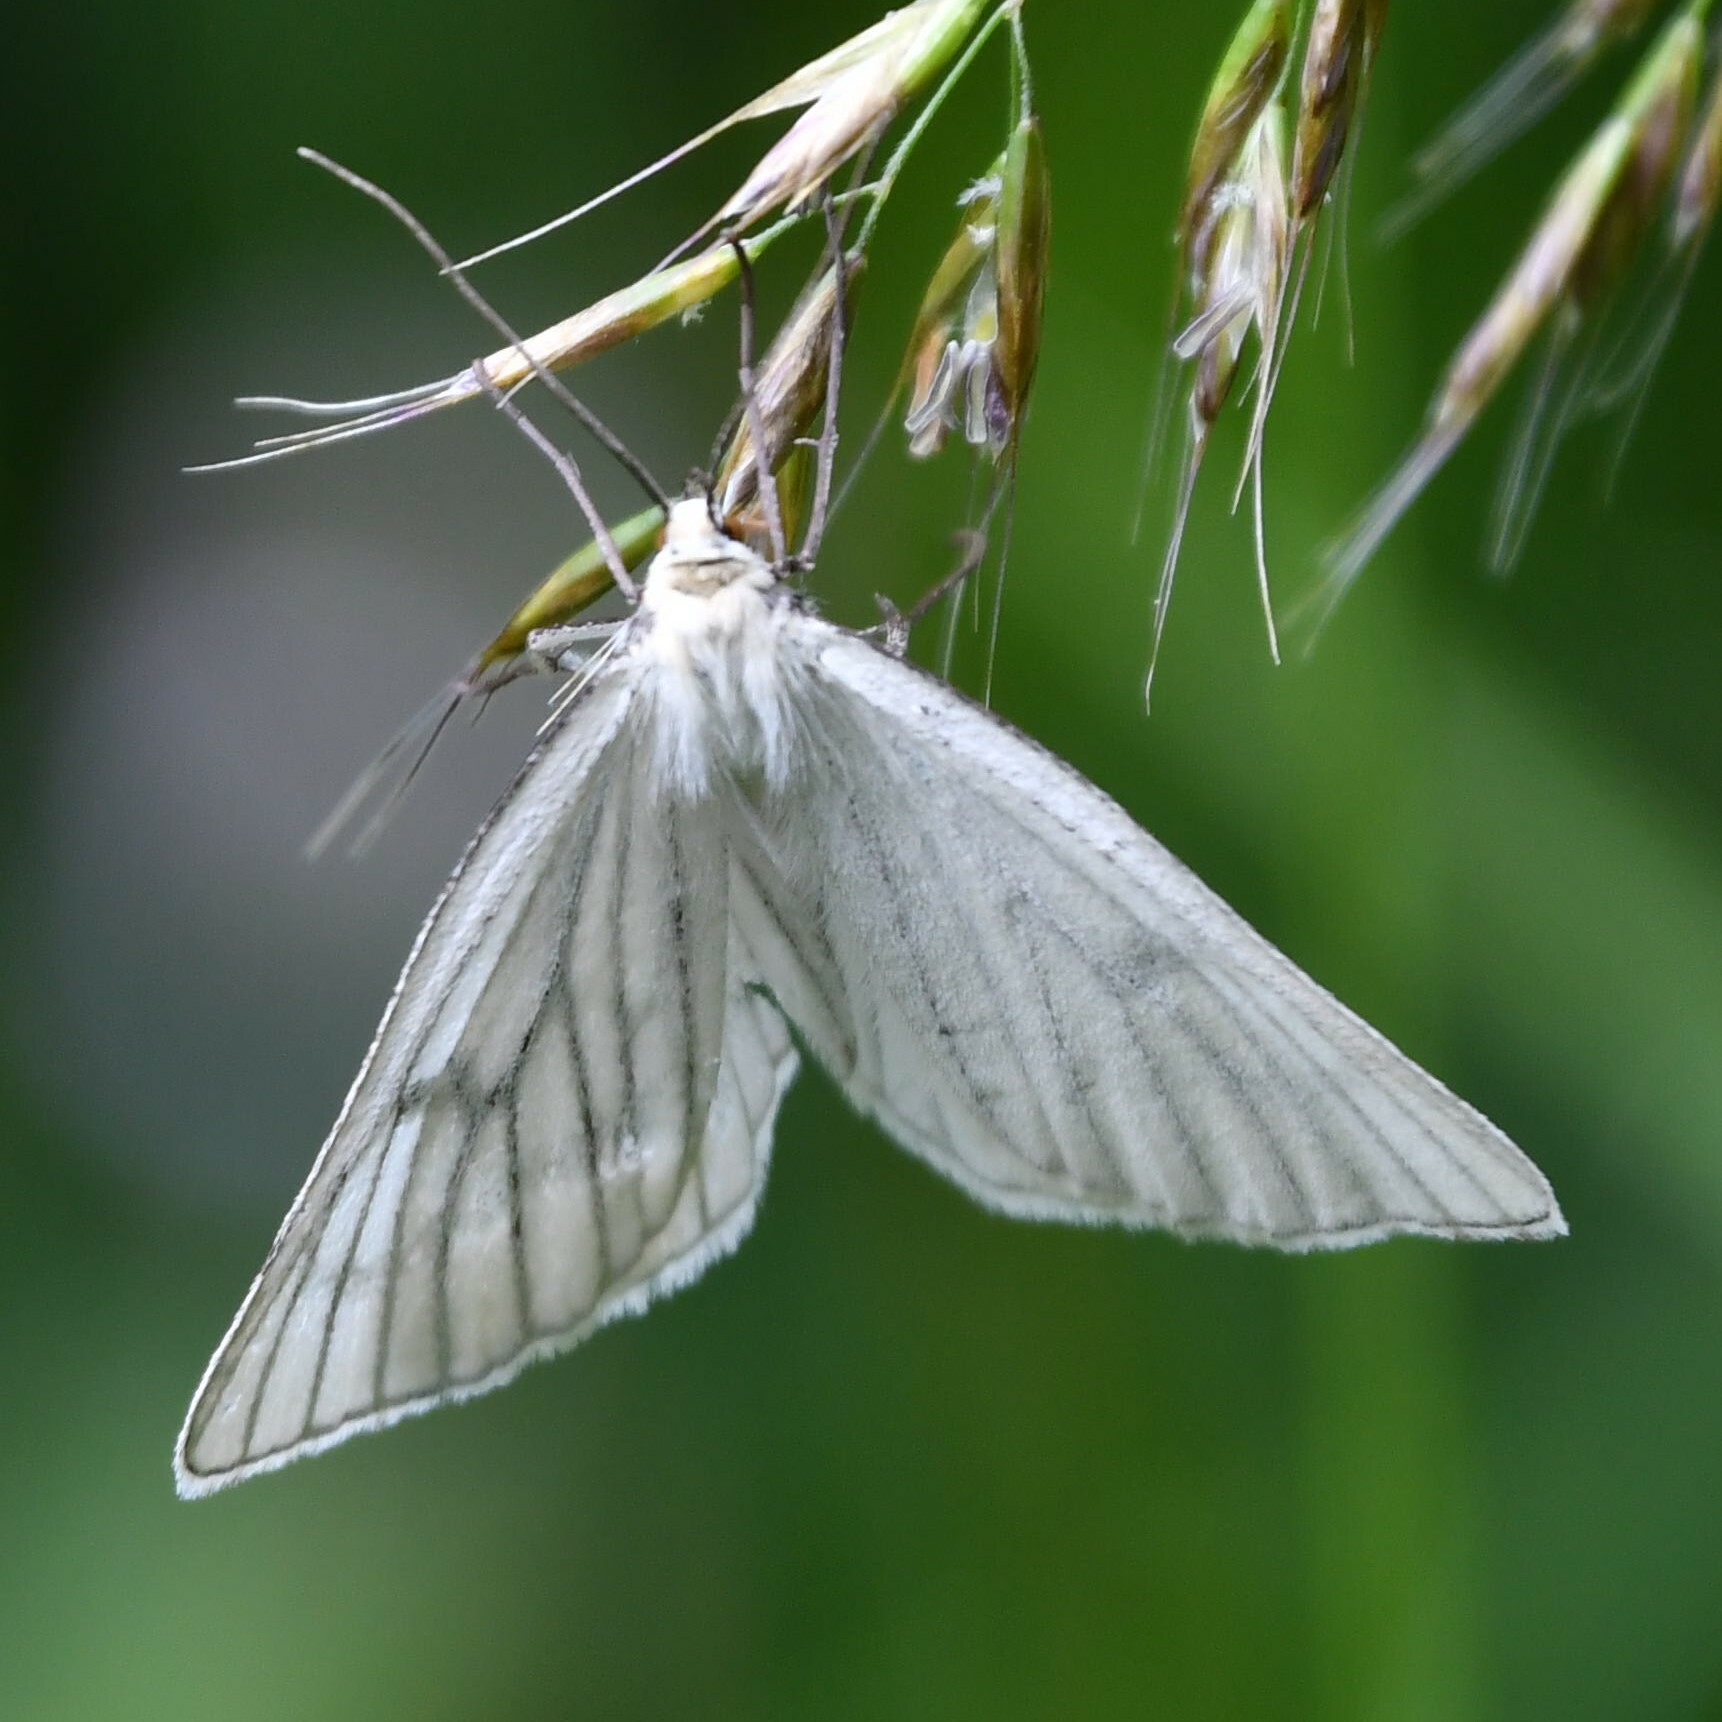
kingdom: Animalia
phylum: Arthropoda
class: Insecta
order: Lepidoptera
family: Geometridae
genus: Siona
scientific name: Siona lineata
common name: Black-veined moth
